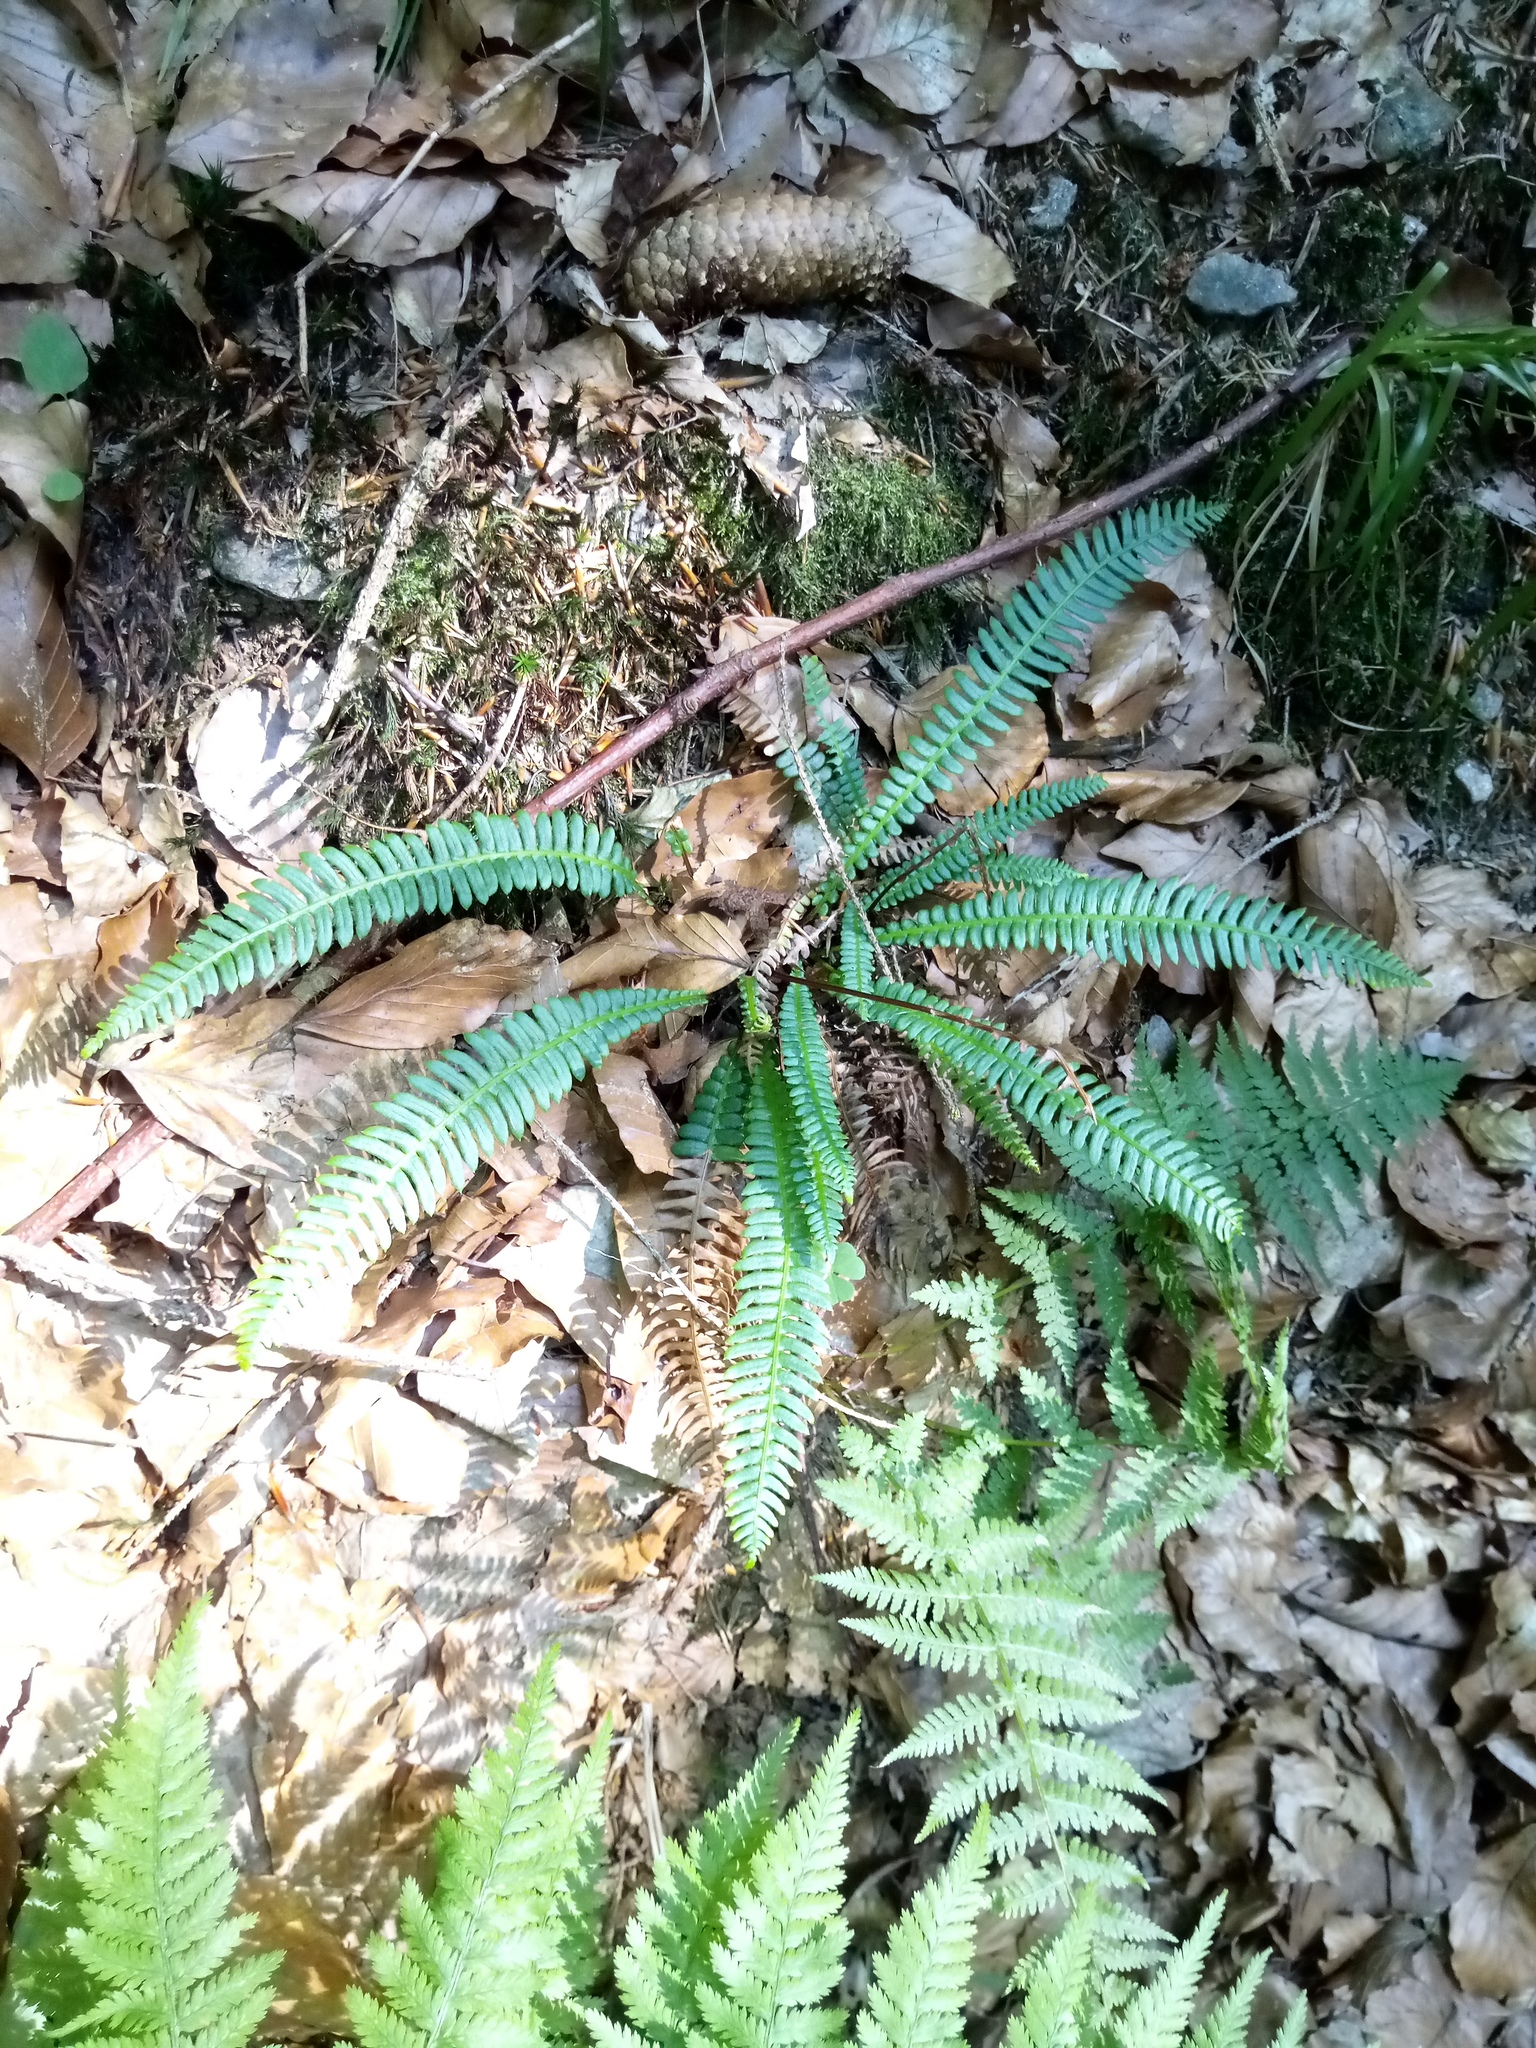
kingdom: Plantae
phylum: Tracheophyta
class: Polypodiopsida
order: Polypodiales
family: Blechnaceae
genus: Struthiopteris
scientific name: Struthiopteris spicant
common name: Deer fern
